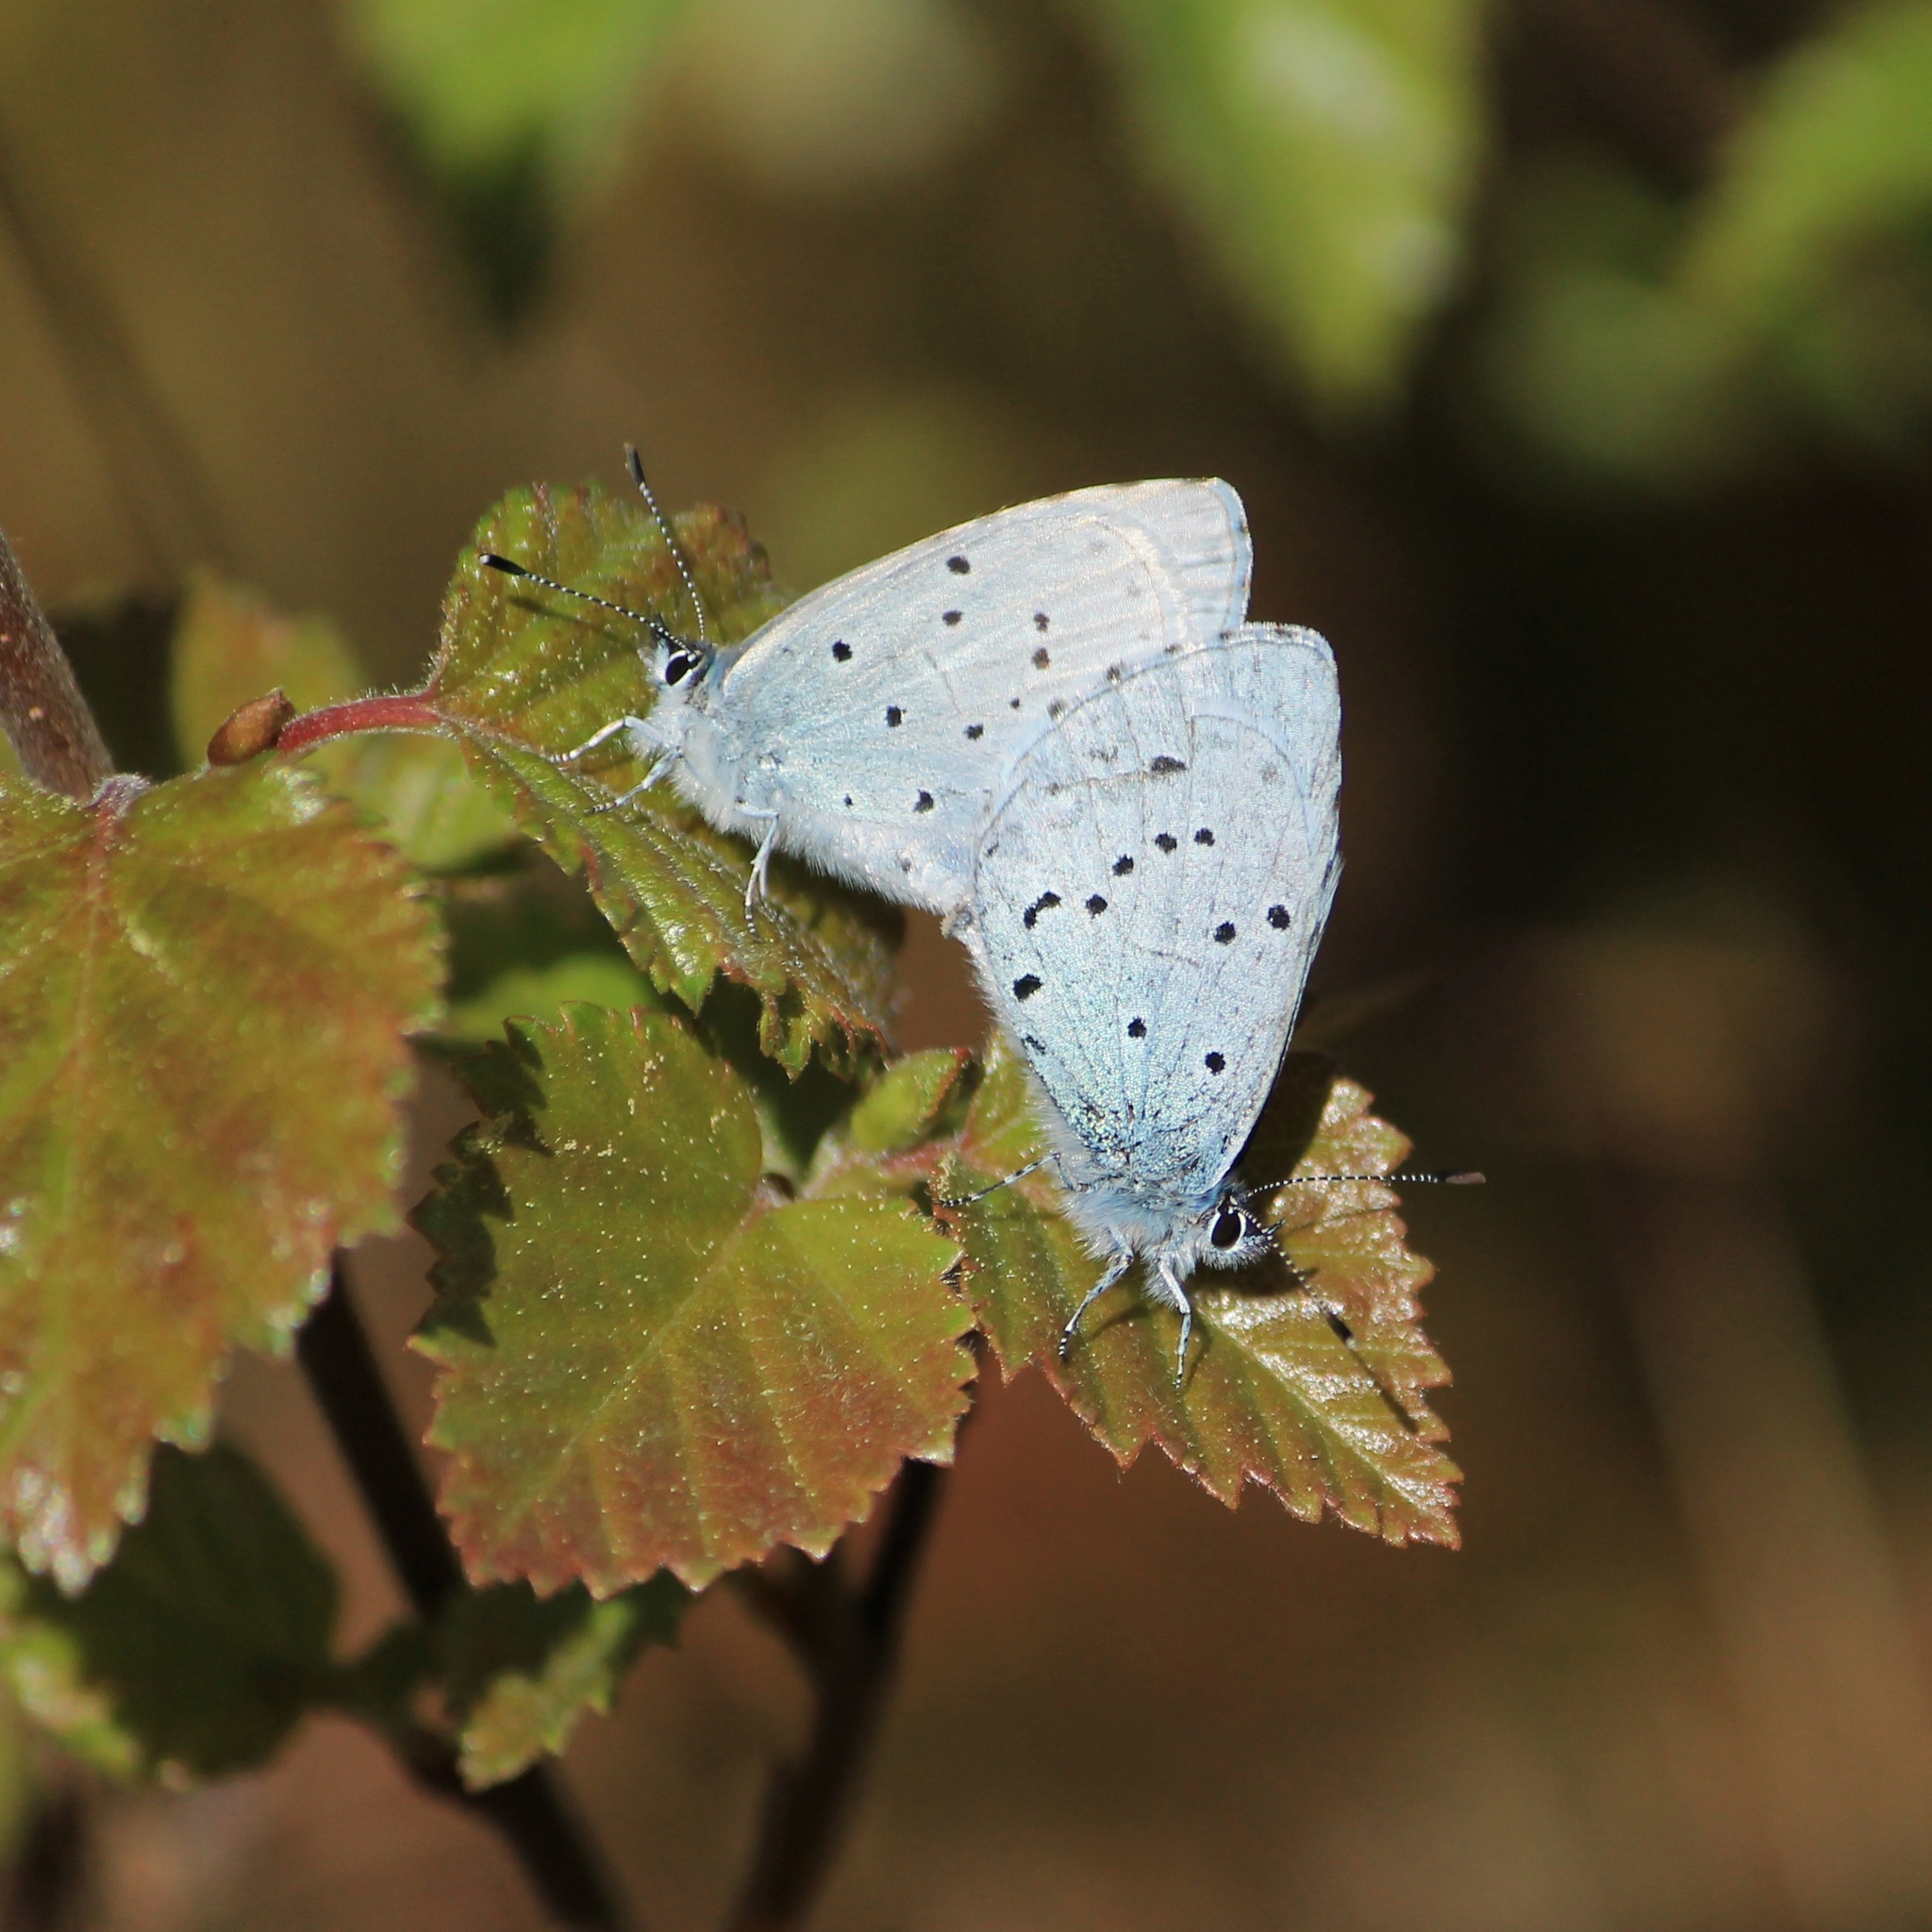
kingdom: Animalia
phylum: Arthropoda
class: Insecta
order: Lepidoptera
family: Lycaenidae
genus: Celastrina
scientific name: Celastrina argiolus
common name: Holly blue
